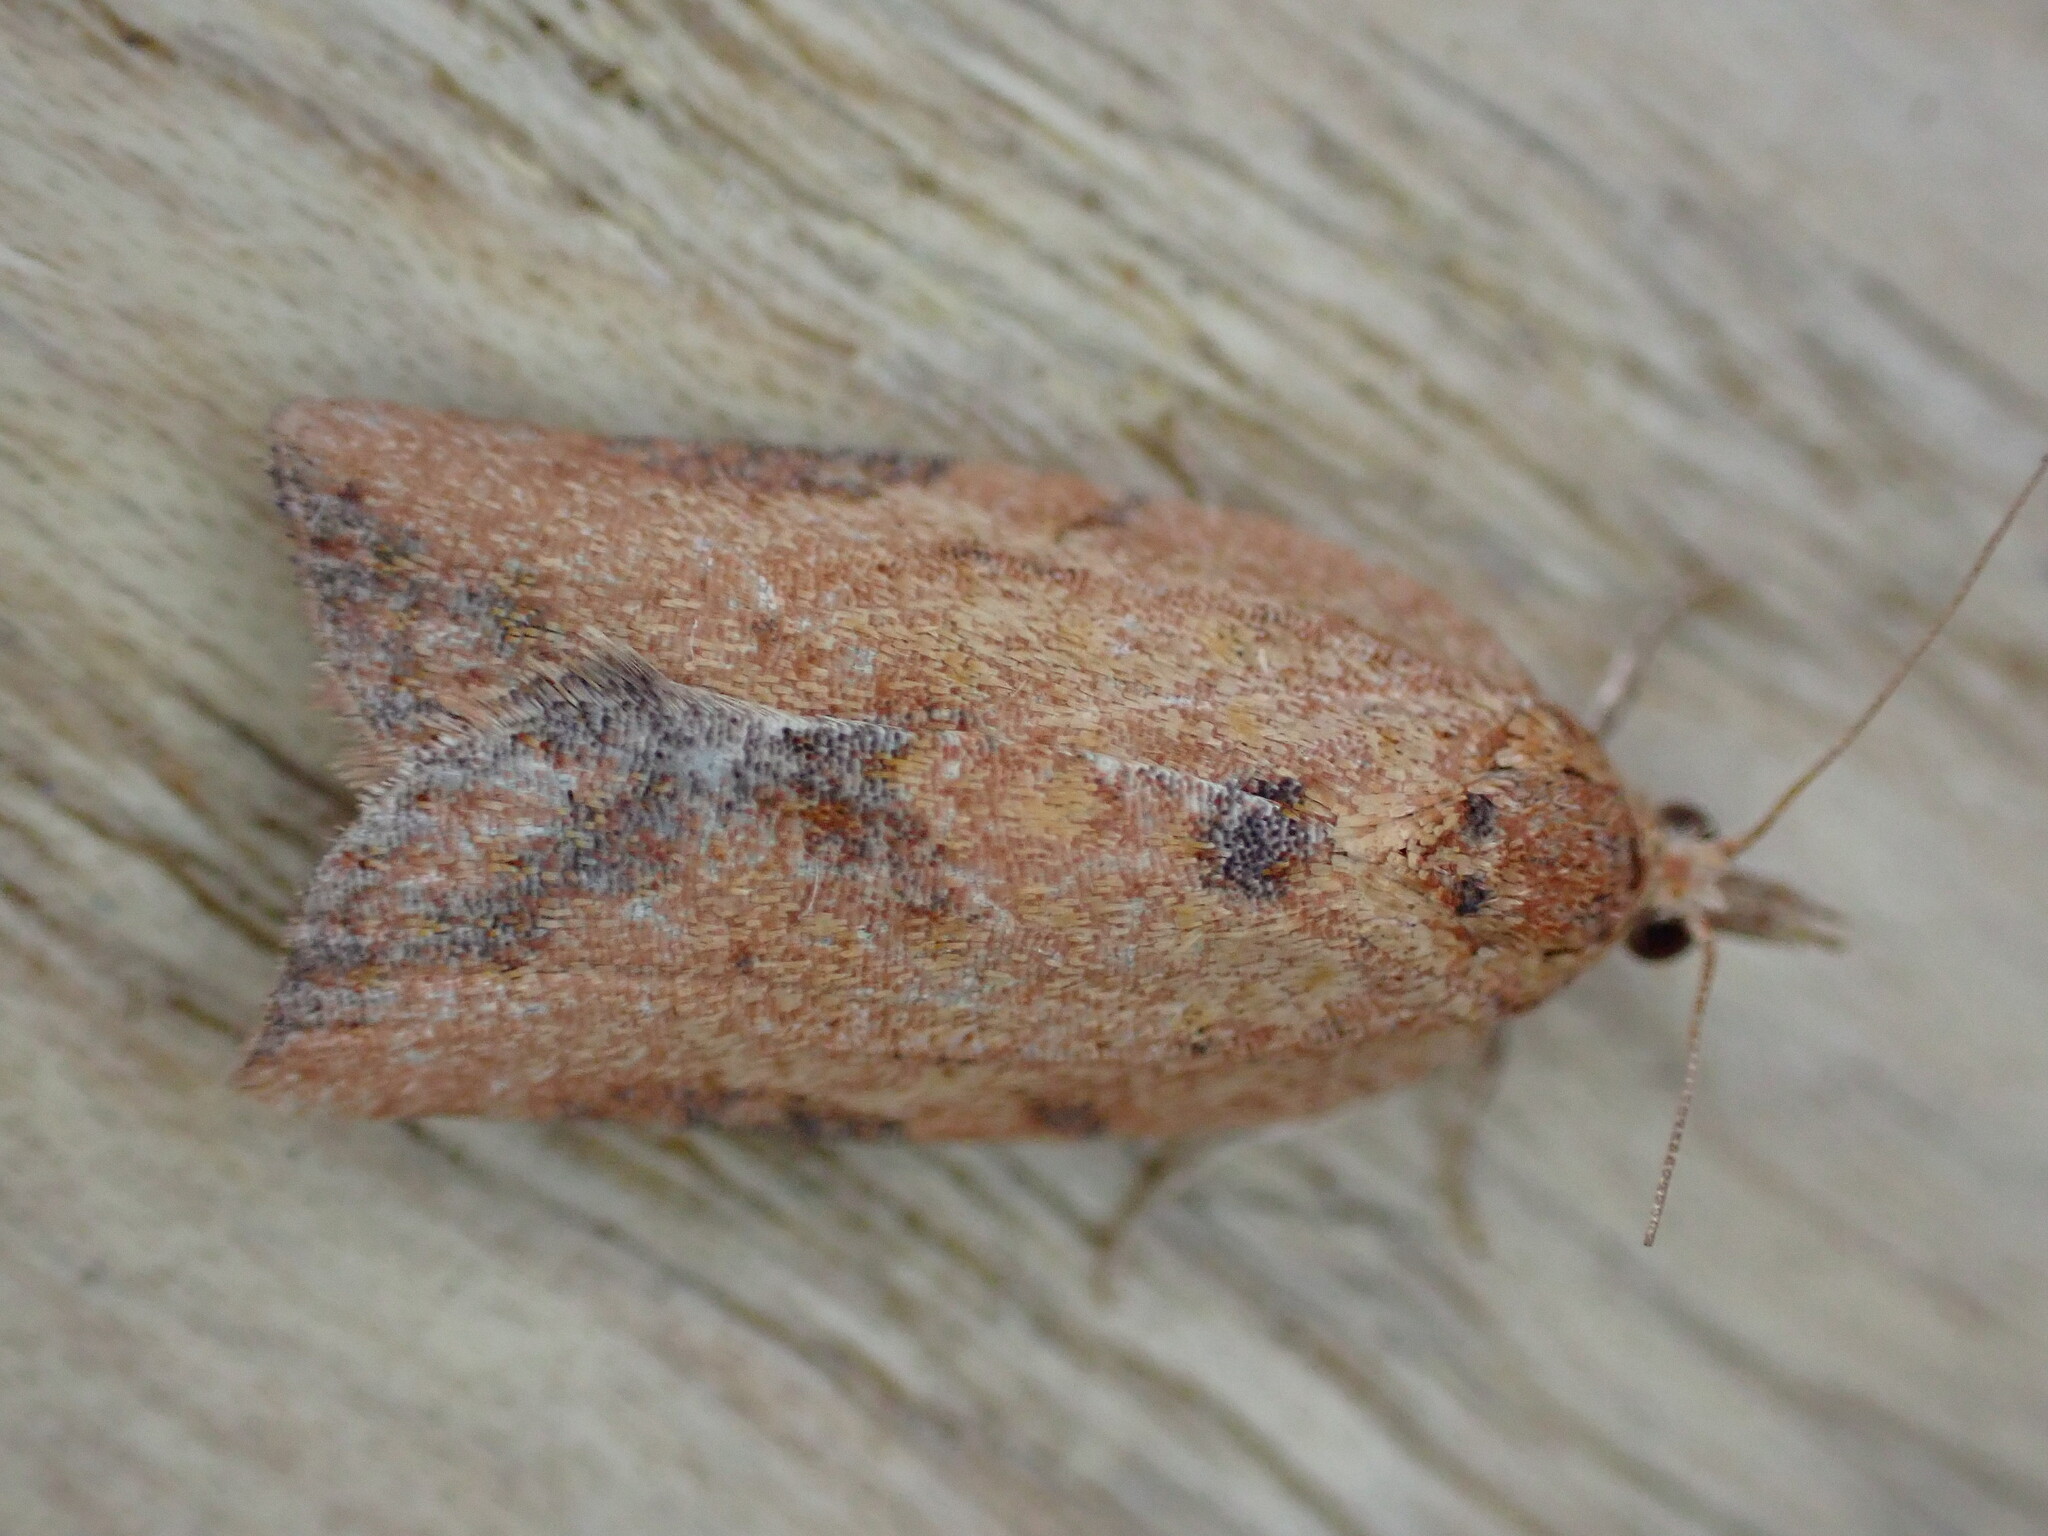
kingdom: Animalia
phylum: Arthropoda
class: Insecta
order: Lepidoptera
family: Tortricidae
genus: Epiphyas
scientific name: Epiphyas postvittana
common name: Light brown apple moth
